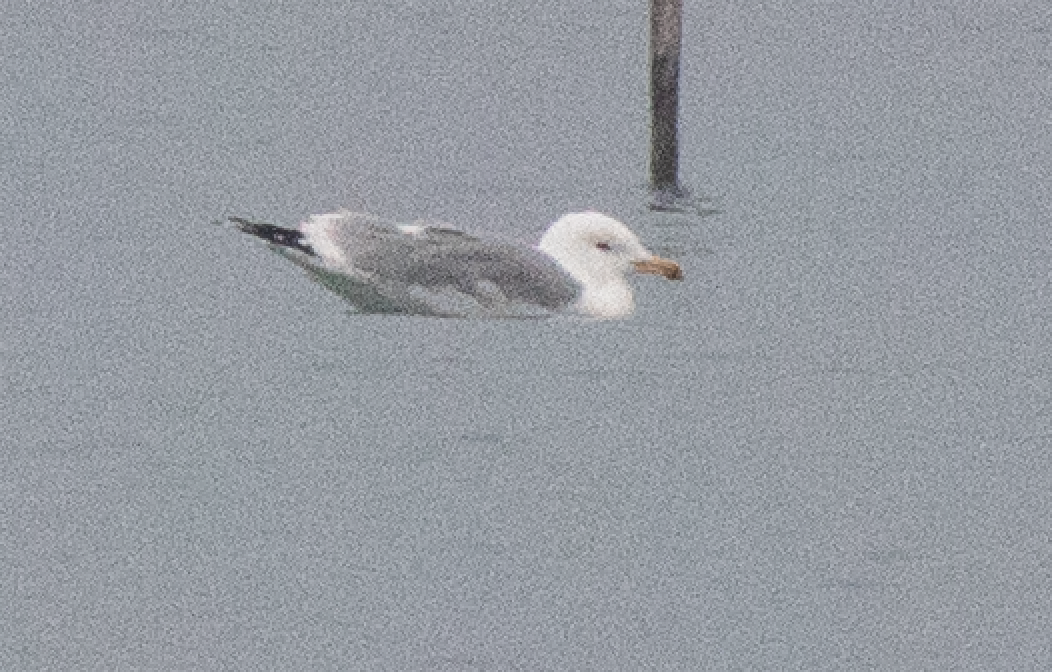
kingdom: Animalia
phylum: Chordata
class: Aves
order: Charadriiformes
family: Laridae
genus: Larus
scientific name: Larus michahellis
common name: Yellow-legged gull
